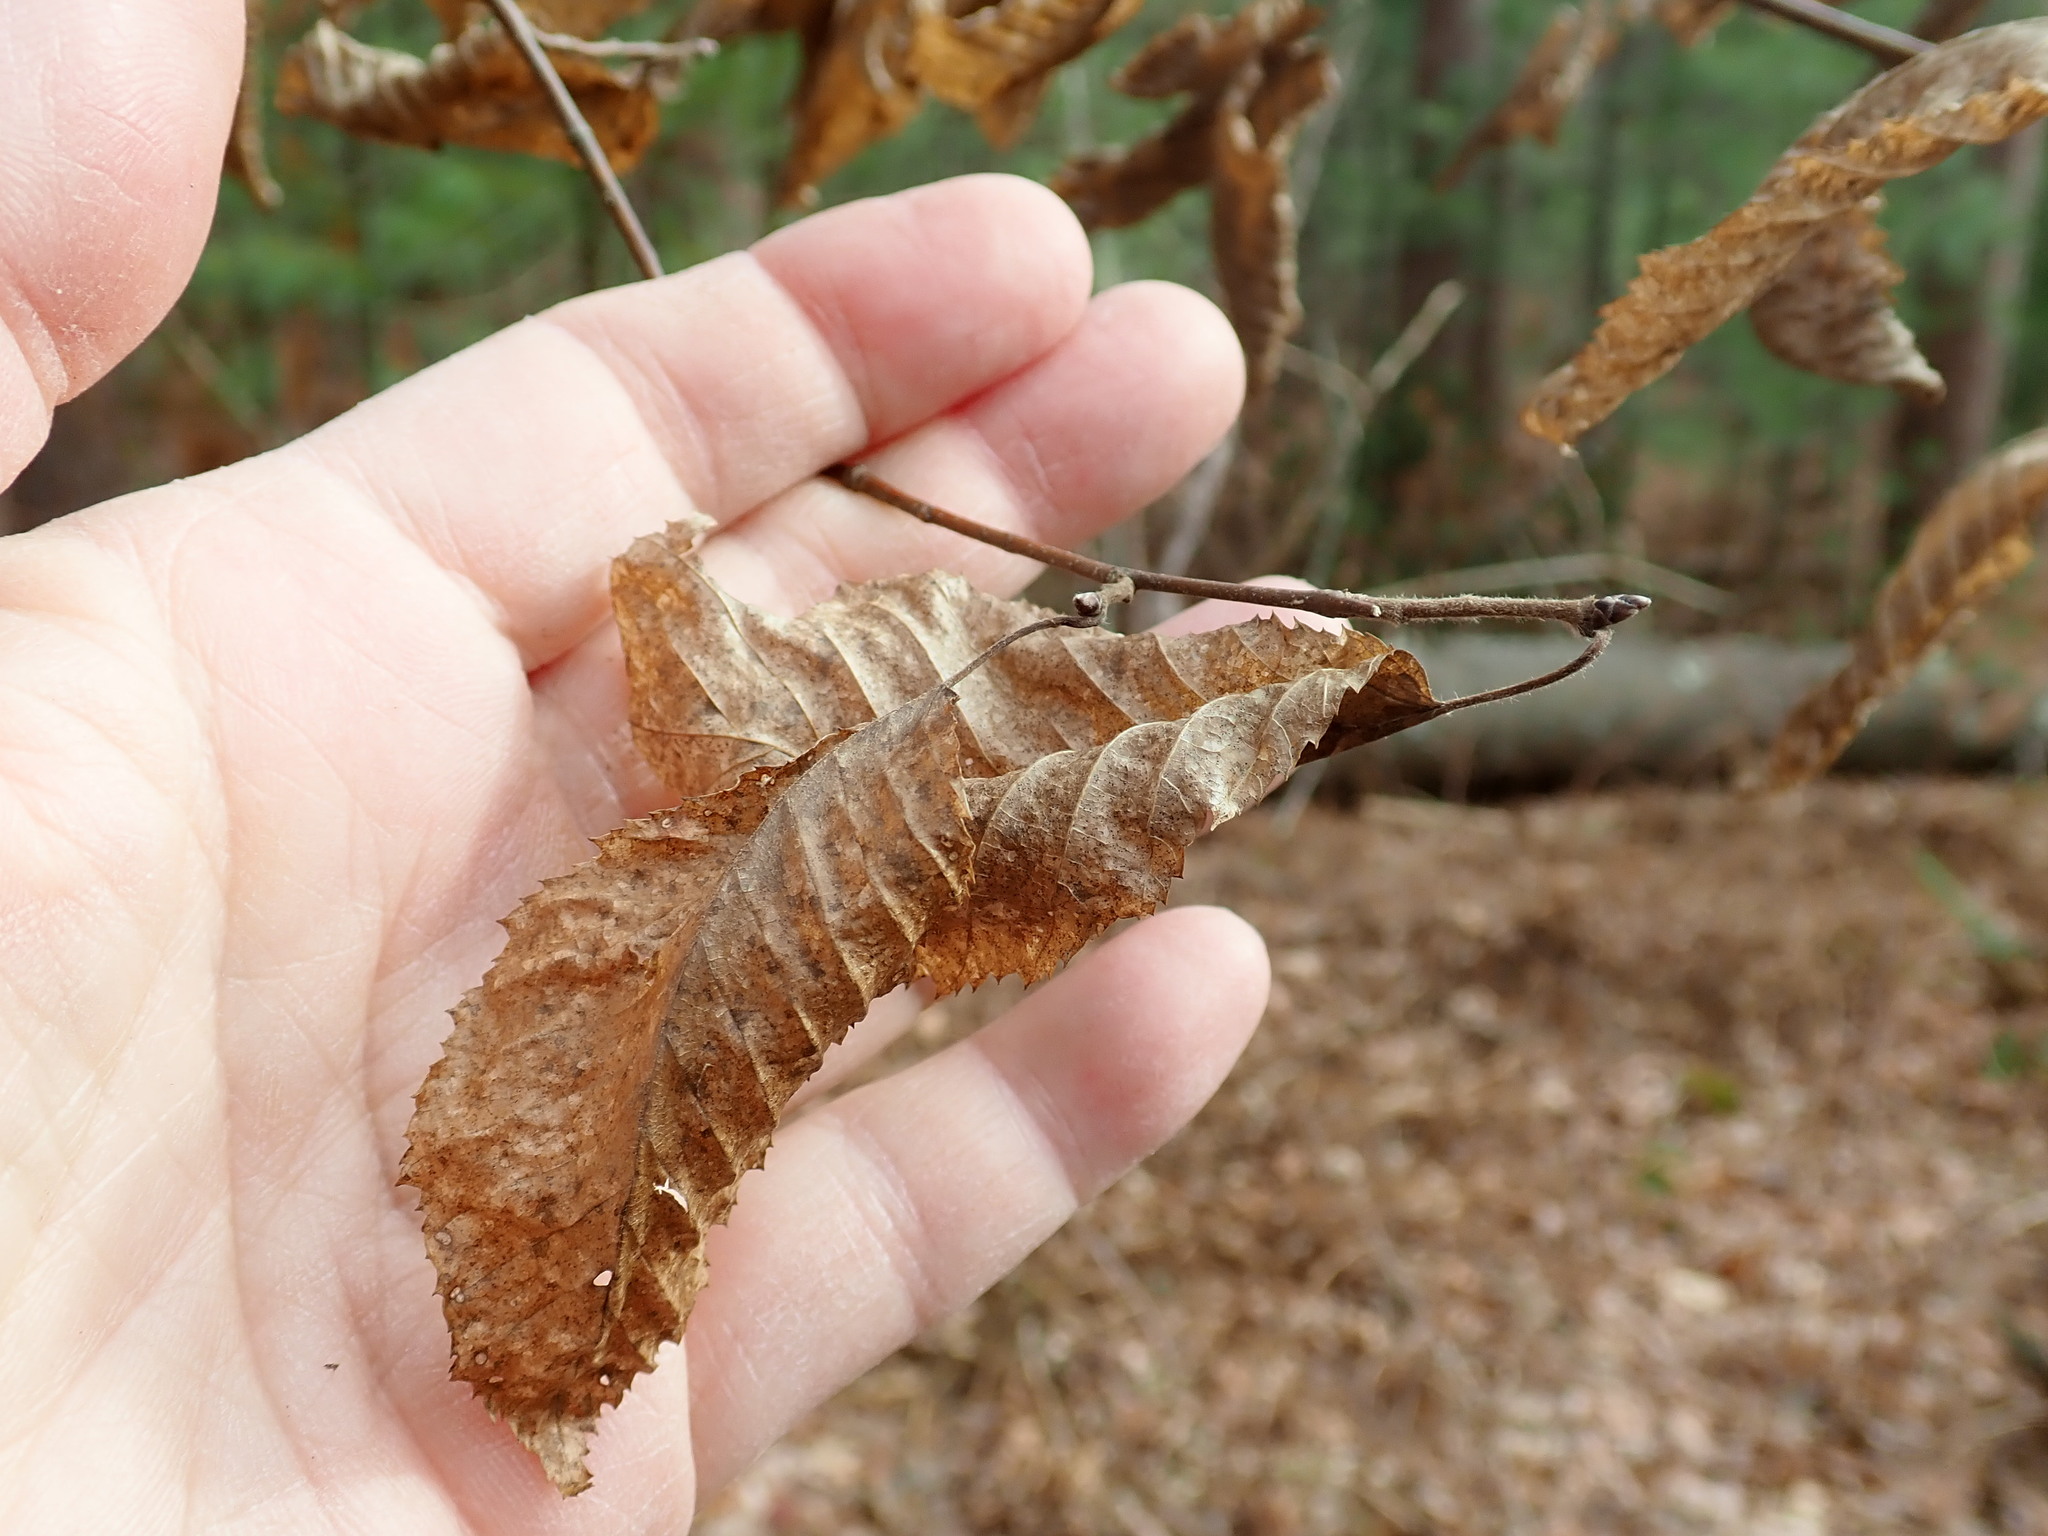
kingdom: Plantae
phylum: Tracheophyta
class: Magnoliopsida
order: Fagales
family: Betulaceae
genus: Carpinus
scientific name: Carpinus caroliniana
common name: American hornbeam
